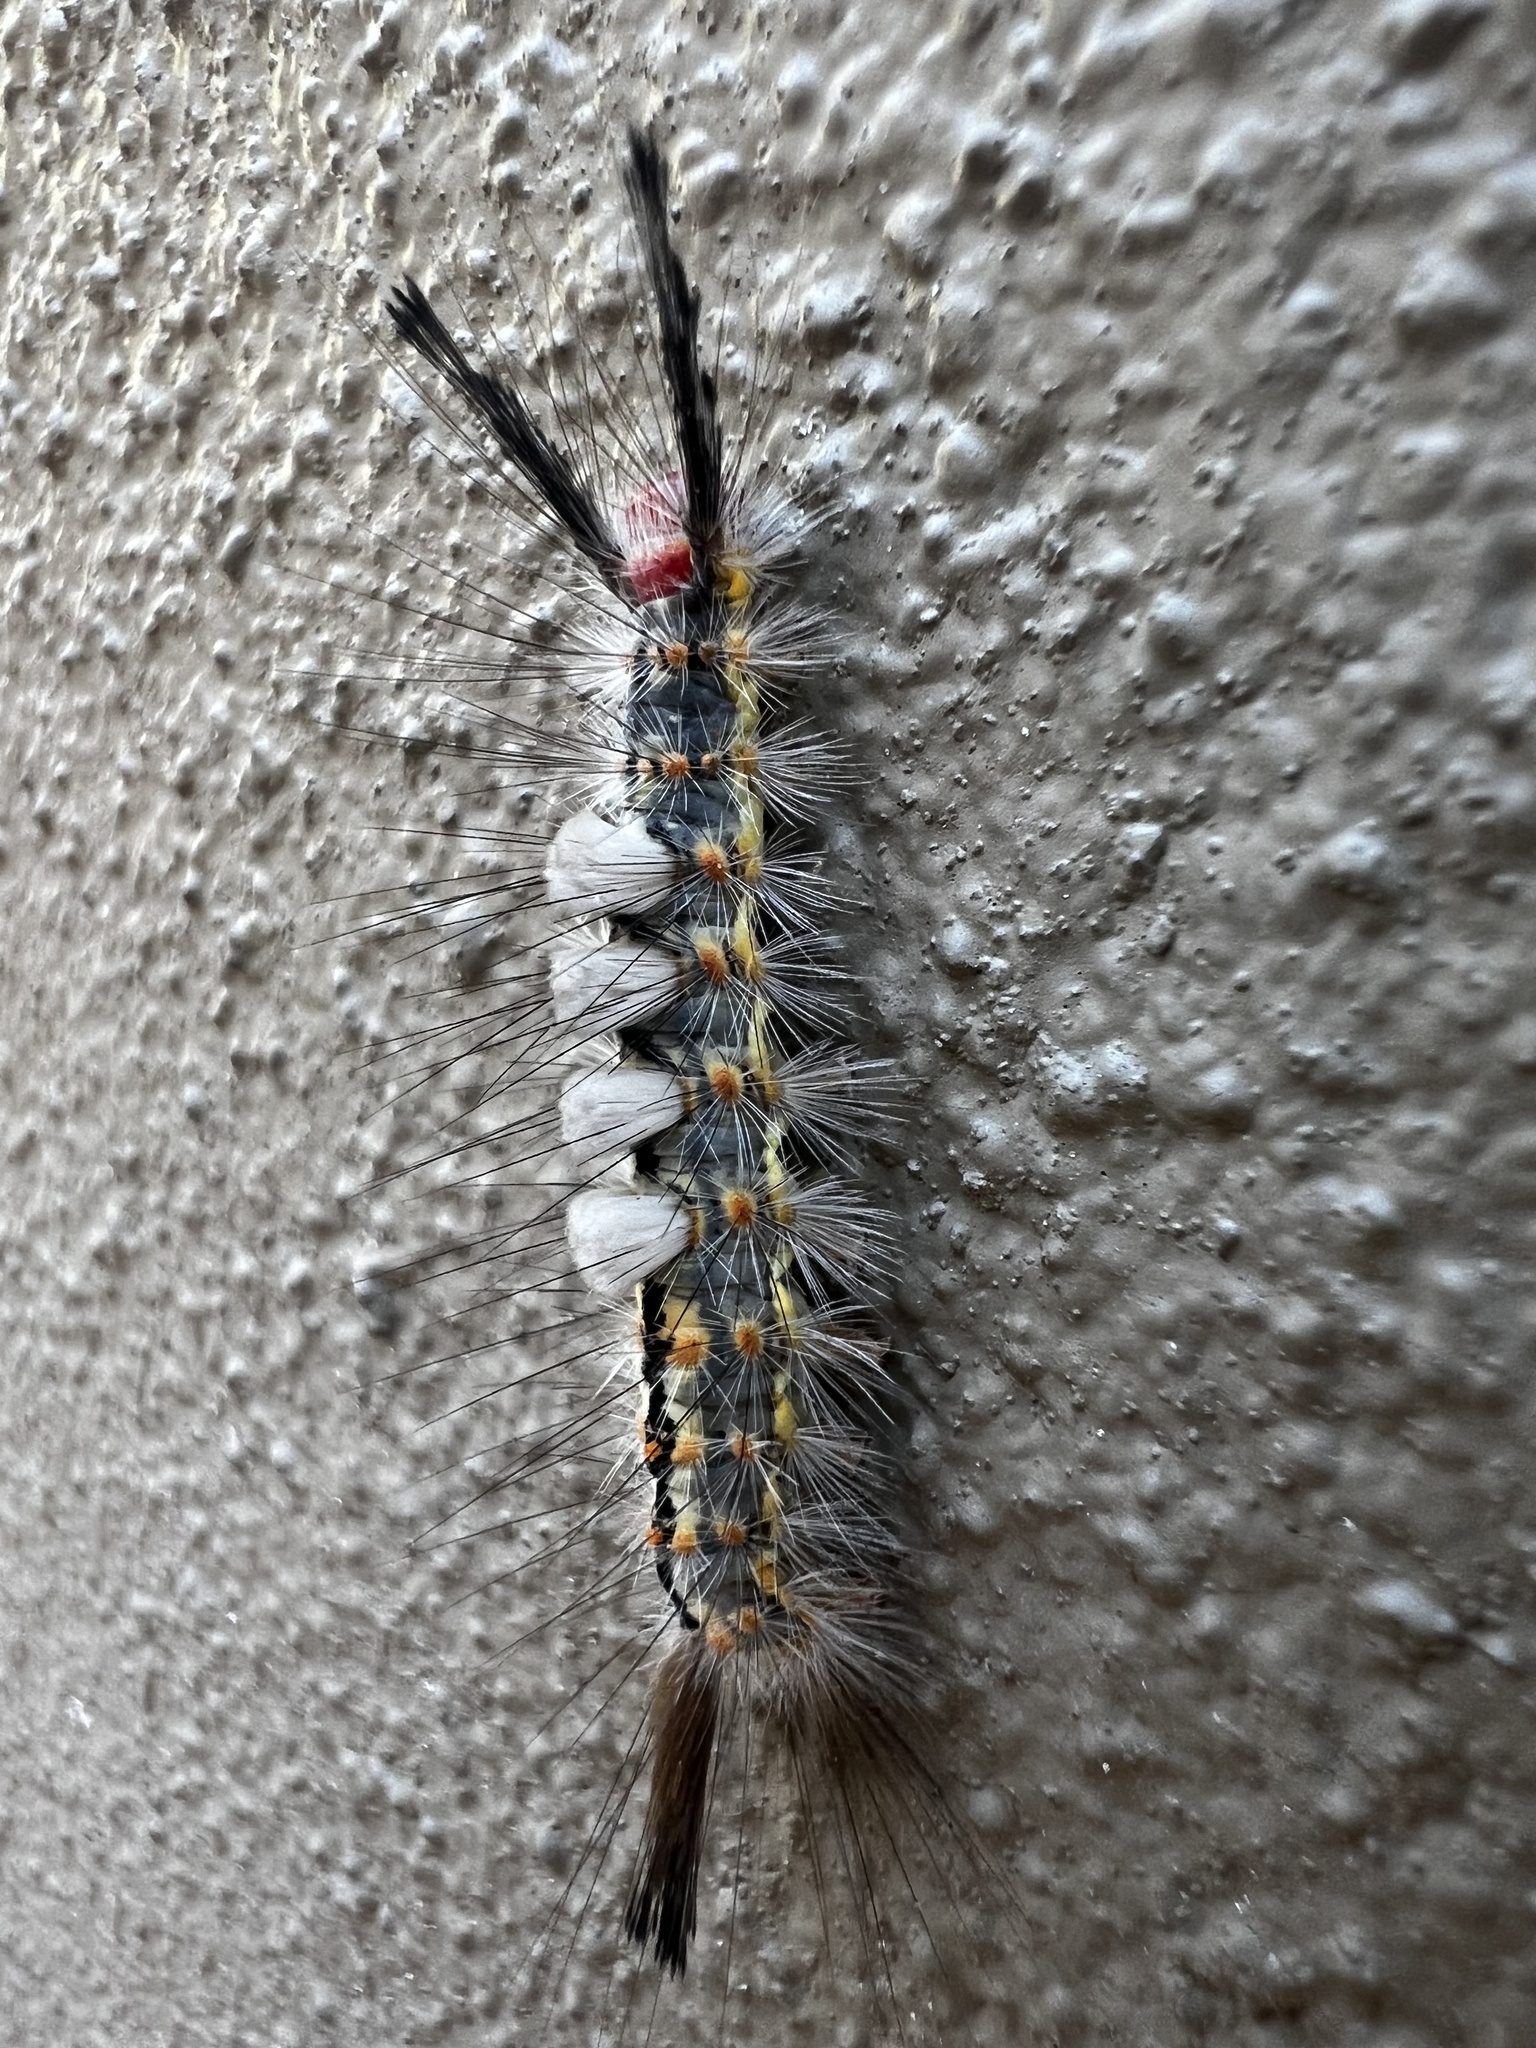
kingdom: Animalia
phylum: Arthropoda
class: Insecta
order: Lepidoptera
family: Erebidae
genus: Orgyia
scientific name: Orgyia detrita
